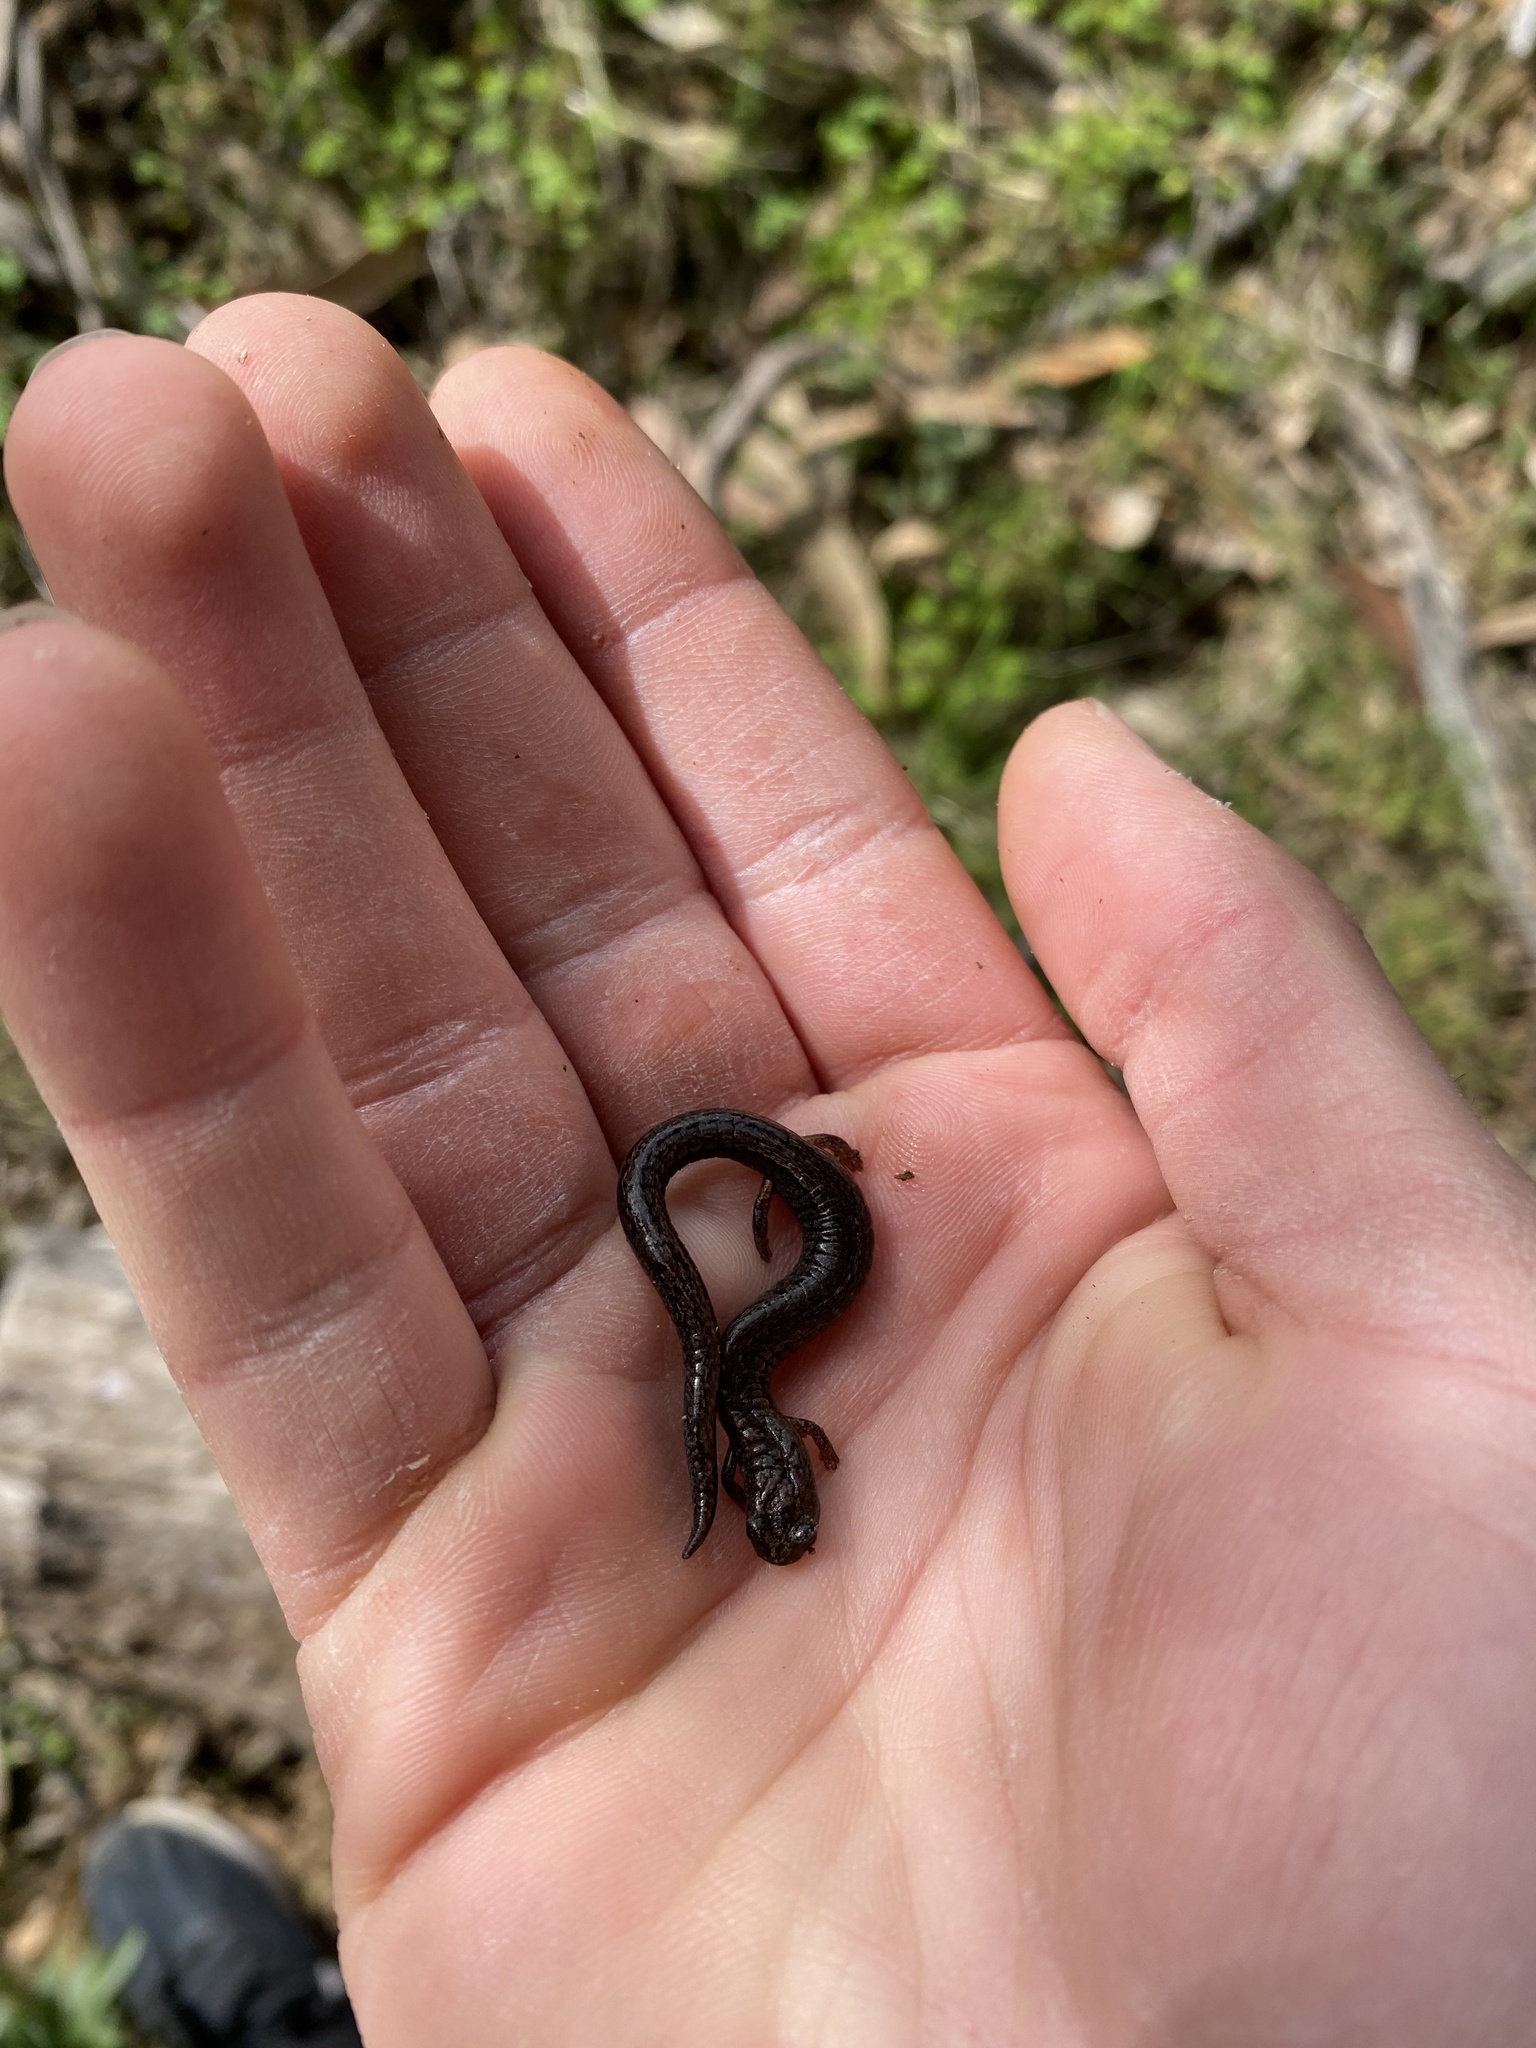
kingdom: Animalia
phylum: Chordata
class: Amphibia
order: Caudata
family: Plethodontidae
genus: Batrachoseps
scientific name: Batrachoseps attenuatus
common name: California slender salamander
